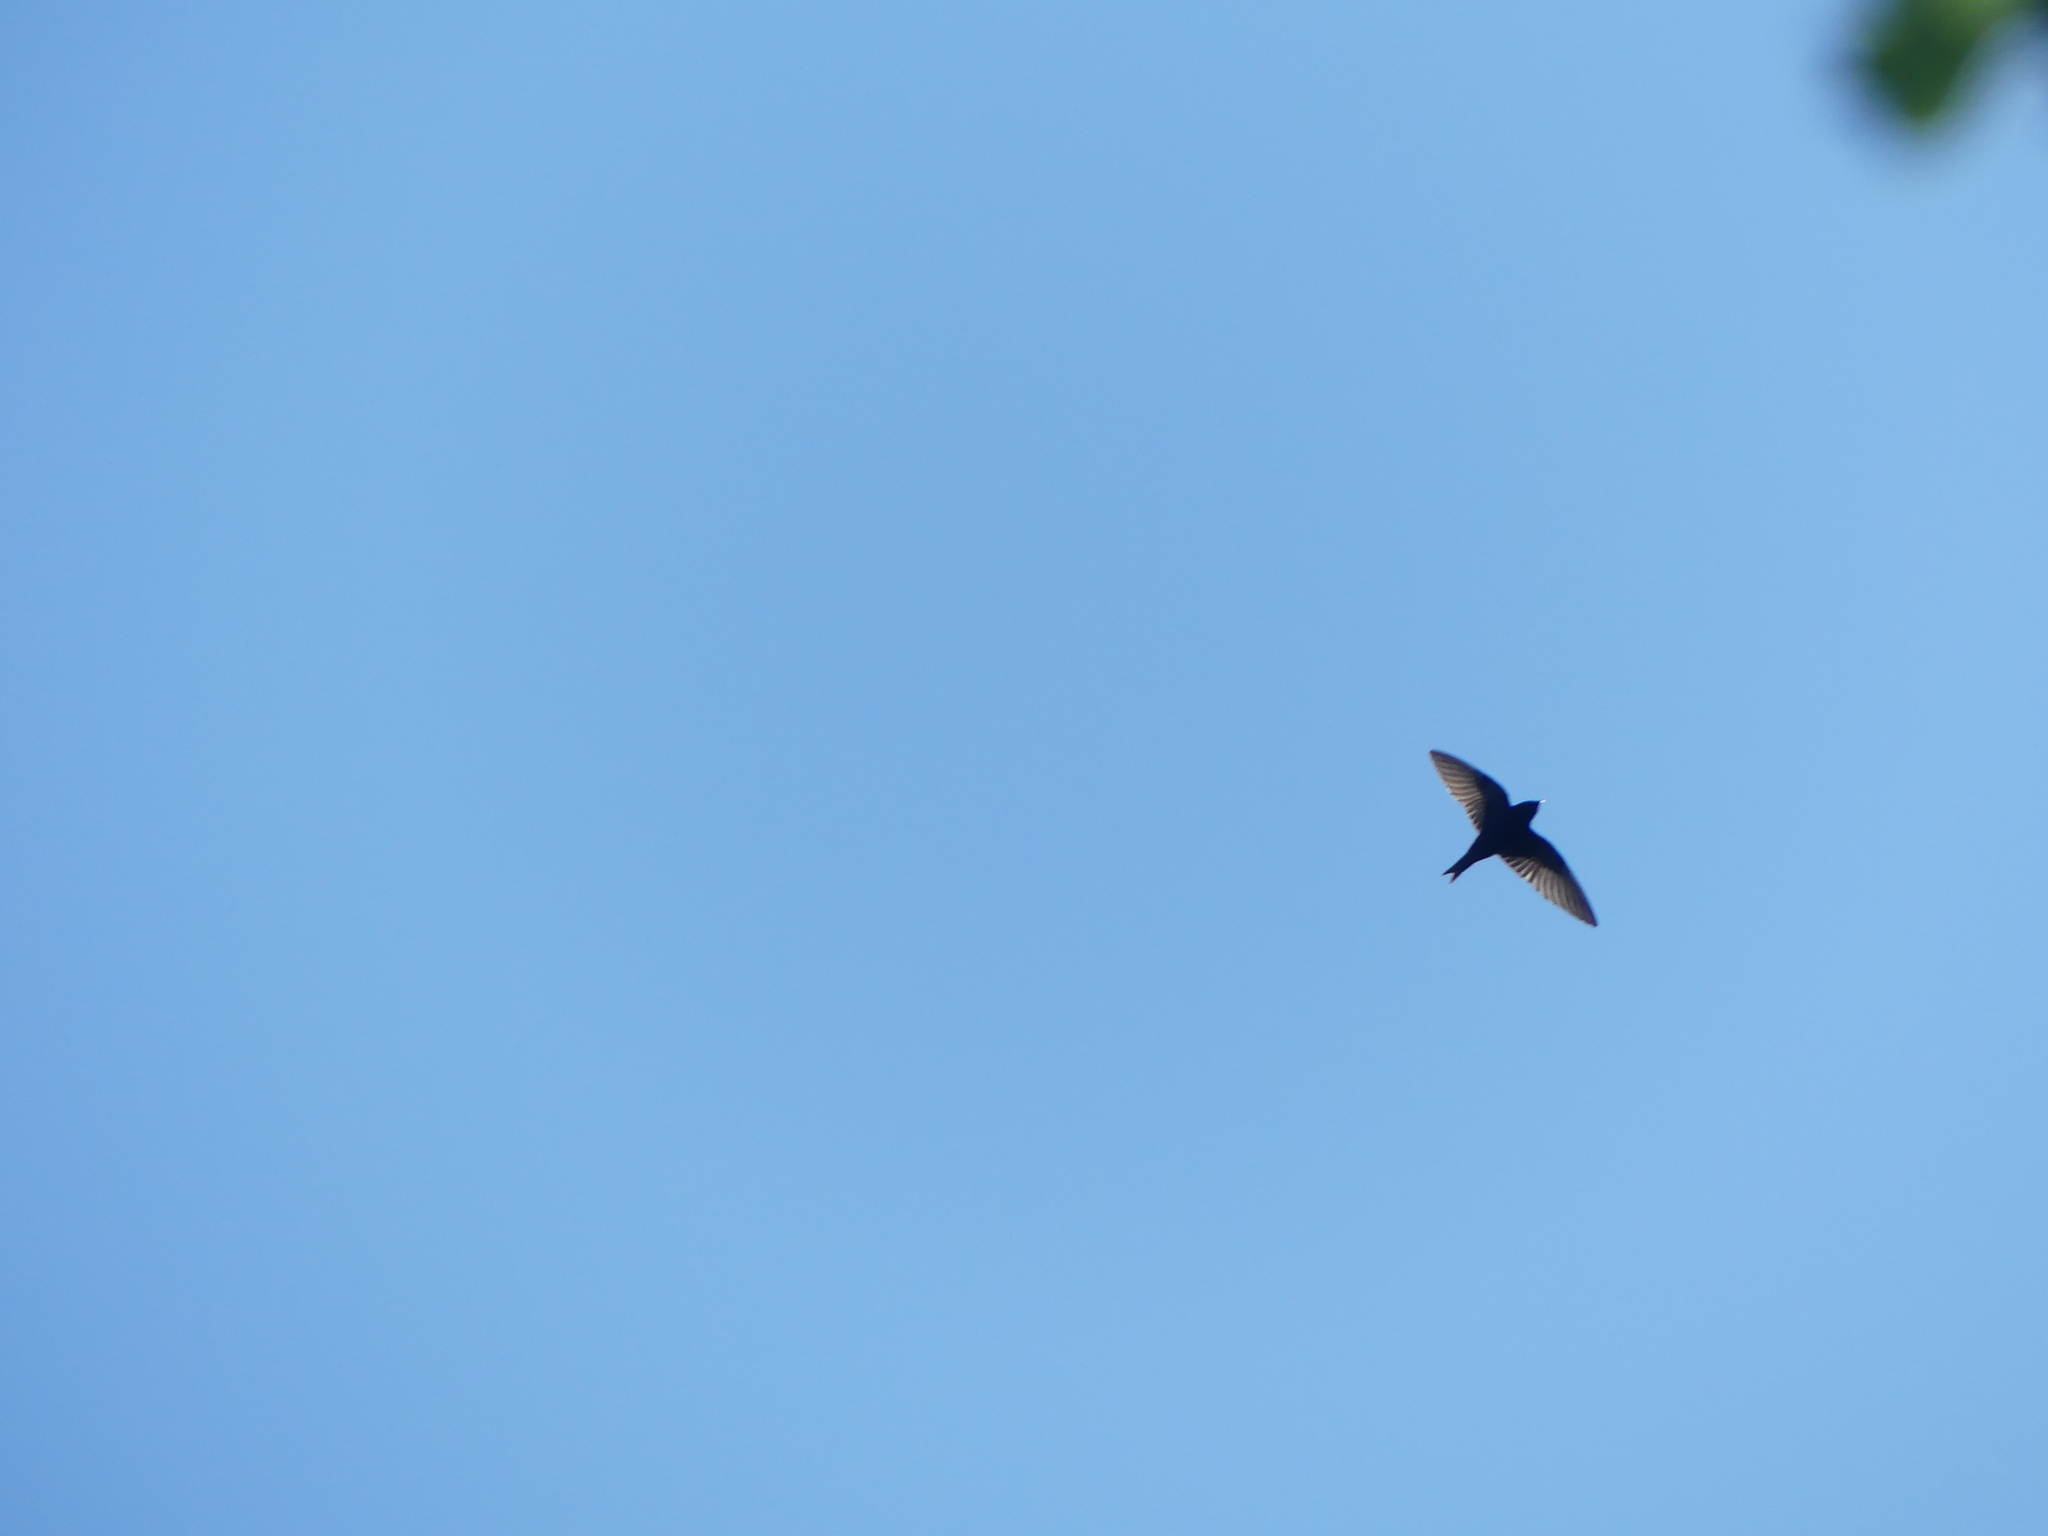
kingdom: Animalia
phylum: Chordata
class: Aves
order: Passeriformes
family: Hirundinidae
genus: Progne
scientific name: Progne subis
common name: Purple martin
